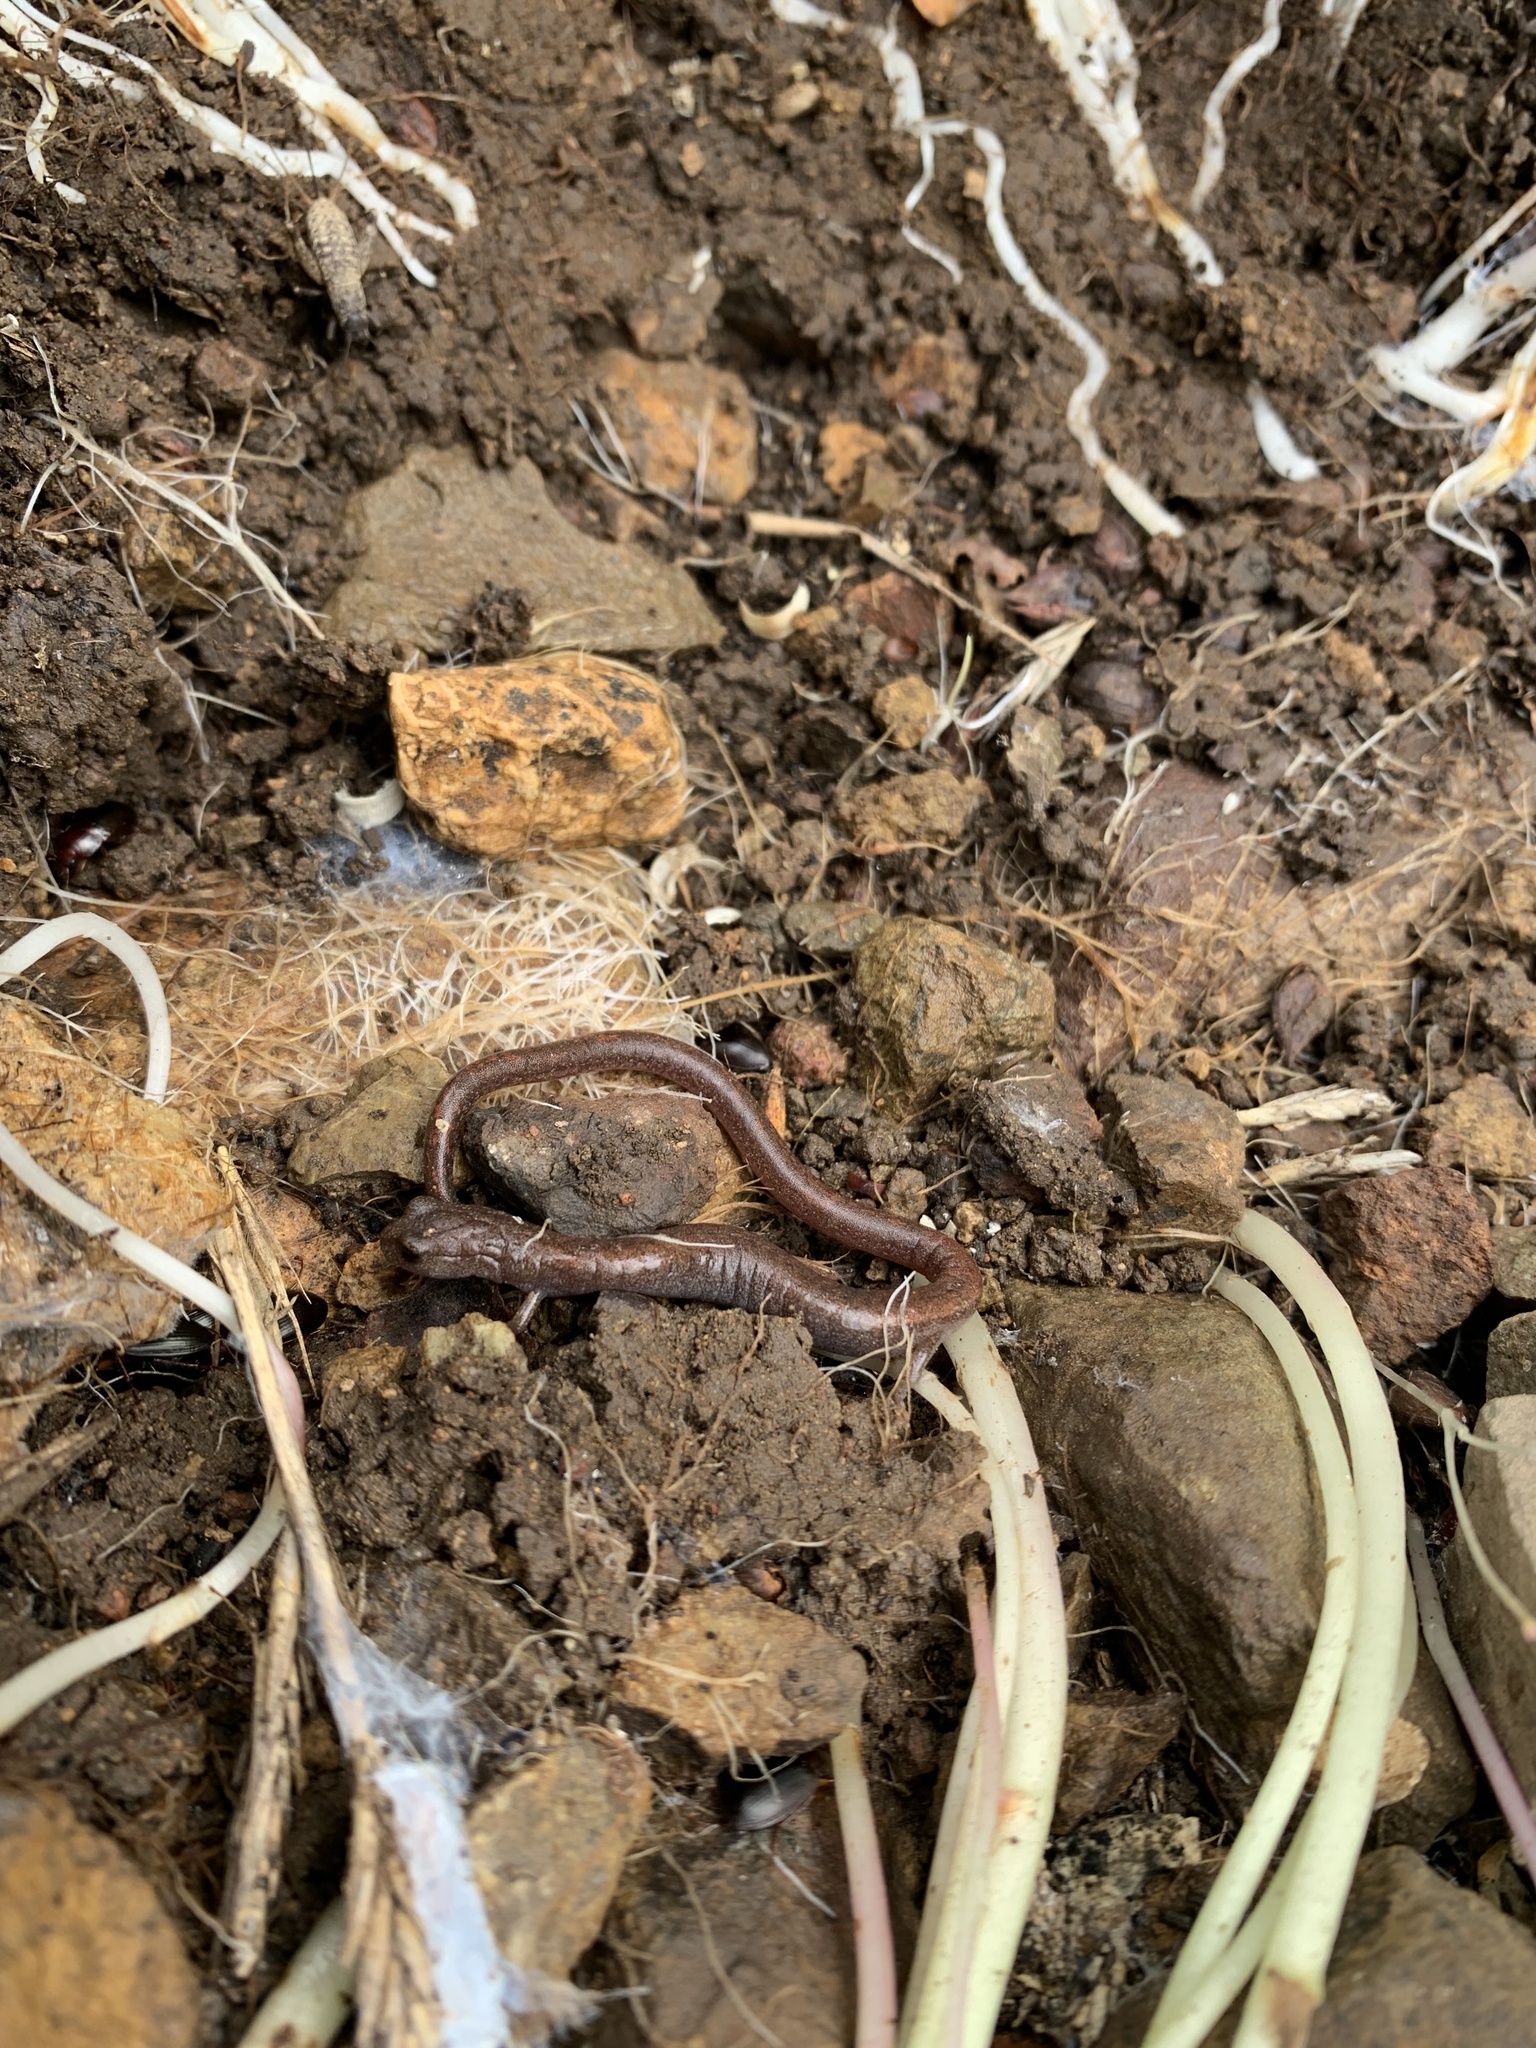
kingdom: Animalia
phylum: Chordata
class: Amphibia
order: Caudata
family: Plethodontidae
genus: Batrachoseps
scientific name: Batrachoseps major
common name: Garden slender salamander
